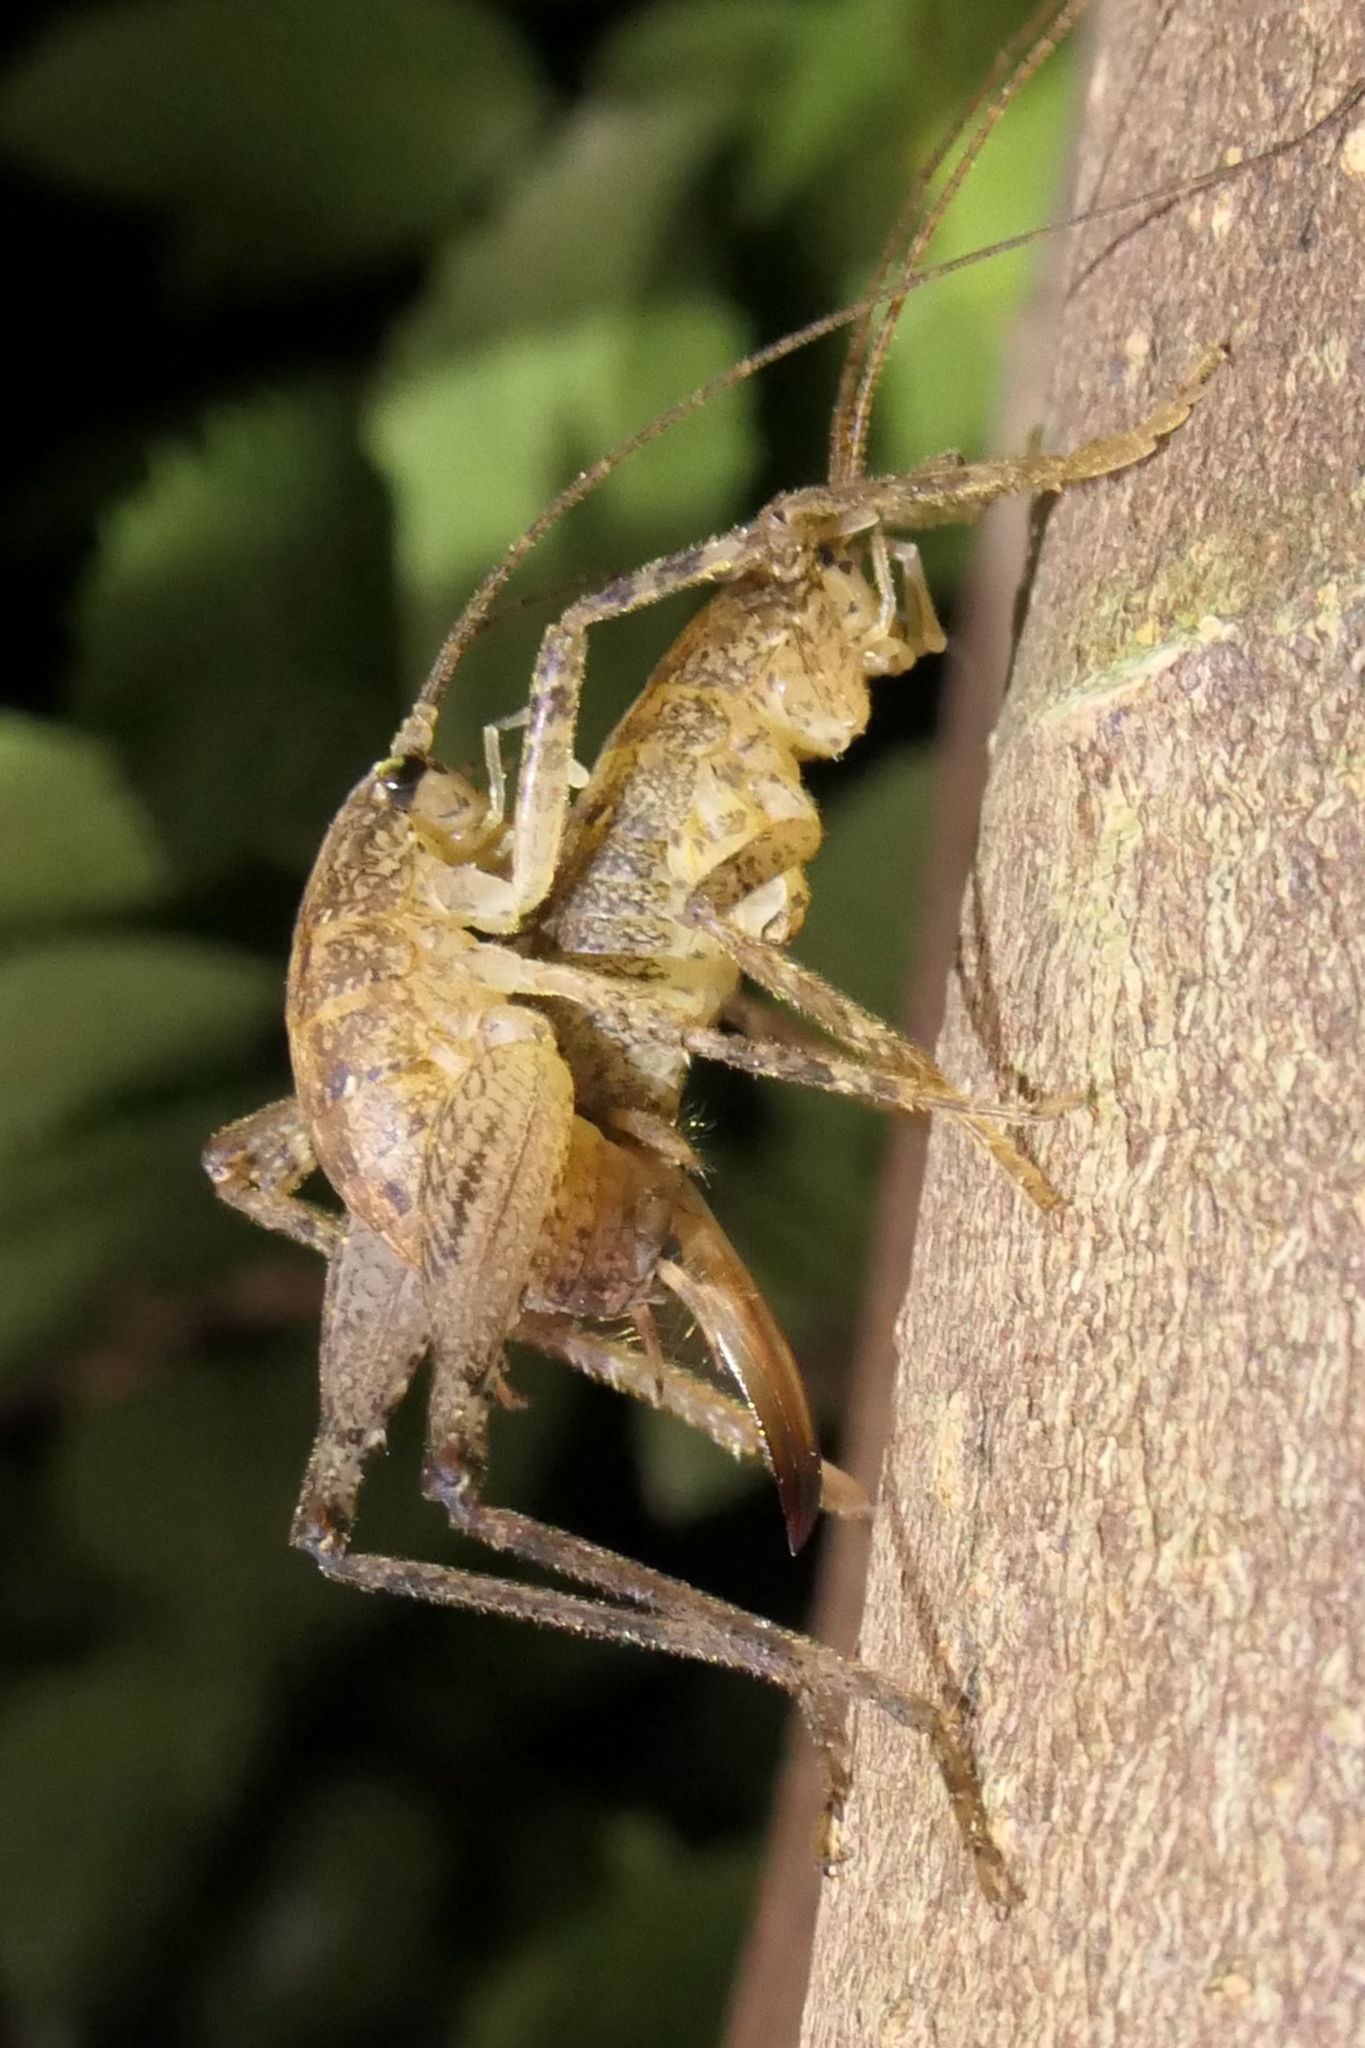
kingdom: Animalia
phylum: Arthropoda
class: Insecta
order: Orthoptera
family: Rhaphidophoridae
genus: Isoplectron
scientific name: Isoplectron armatum
